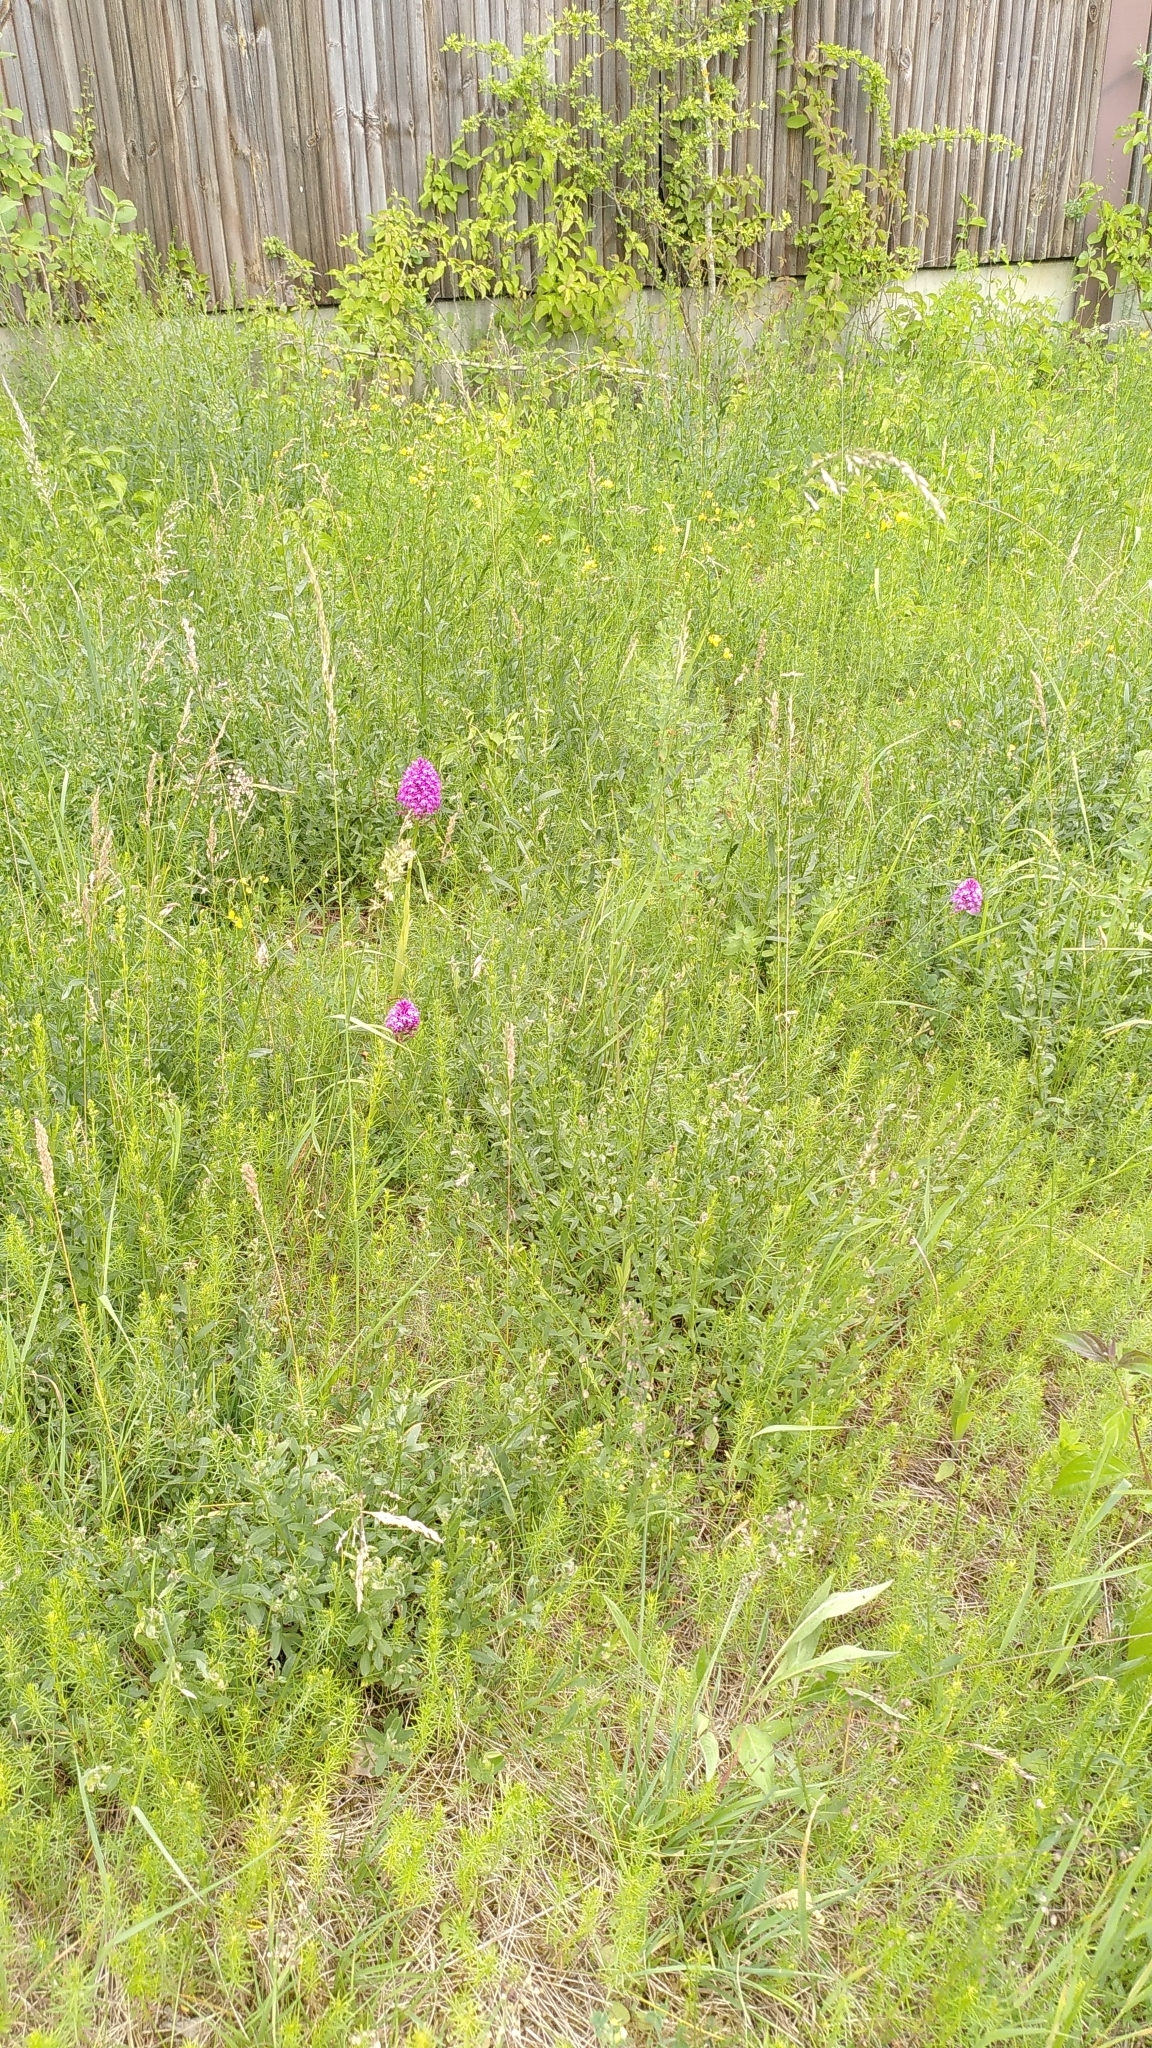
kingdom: Plantae
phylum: Tracheophyta
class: Liliopsida
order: Asparagales
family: Orchidaceae
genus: Anacamptis
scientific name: Anacamptis pyramidalis
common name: Pyramidal orchid
